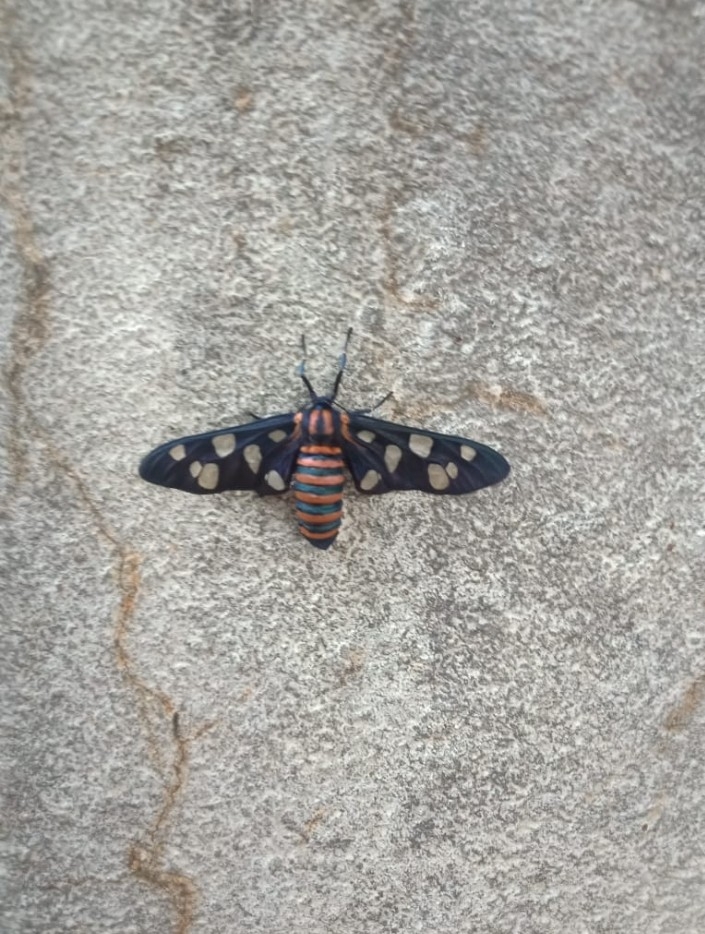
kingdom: Animalia
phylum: Arthropoda
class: Insecta
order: Lepidoptera
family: Erebidae
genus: Amata
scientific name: Amata passalis
